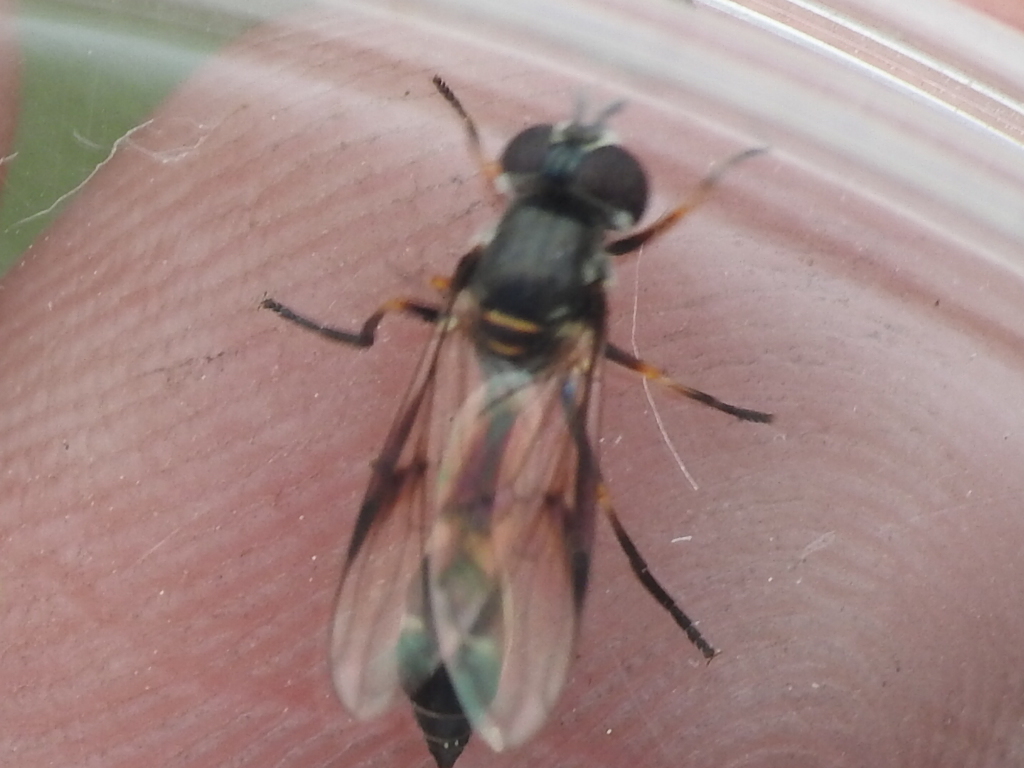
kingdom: Animalia
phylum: Arthropoda
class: Insecta
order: Diptera
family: Syrphidae
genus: Dioprosopa
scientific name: Dioprosopa clavatus
